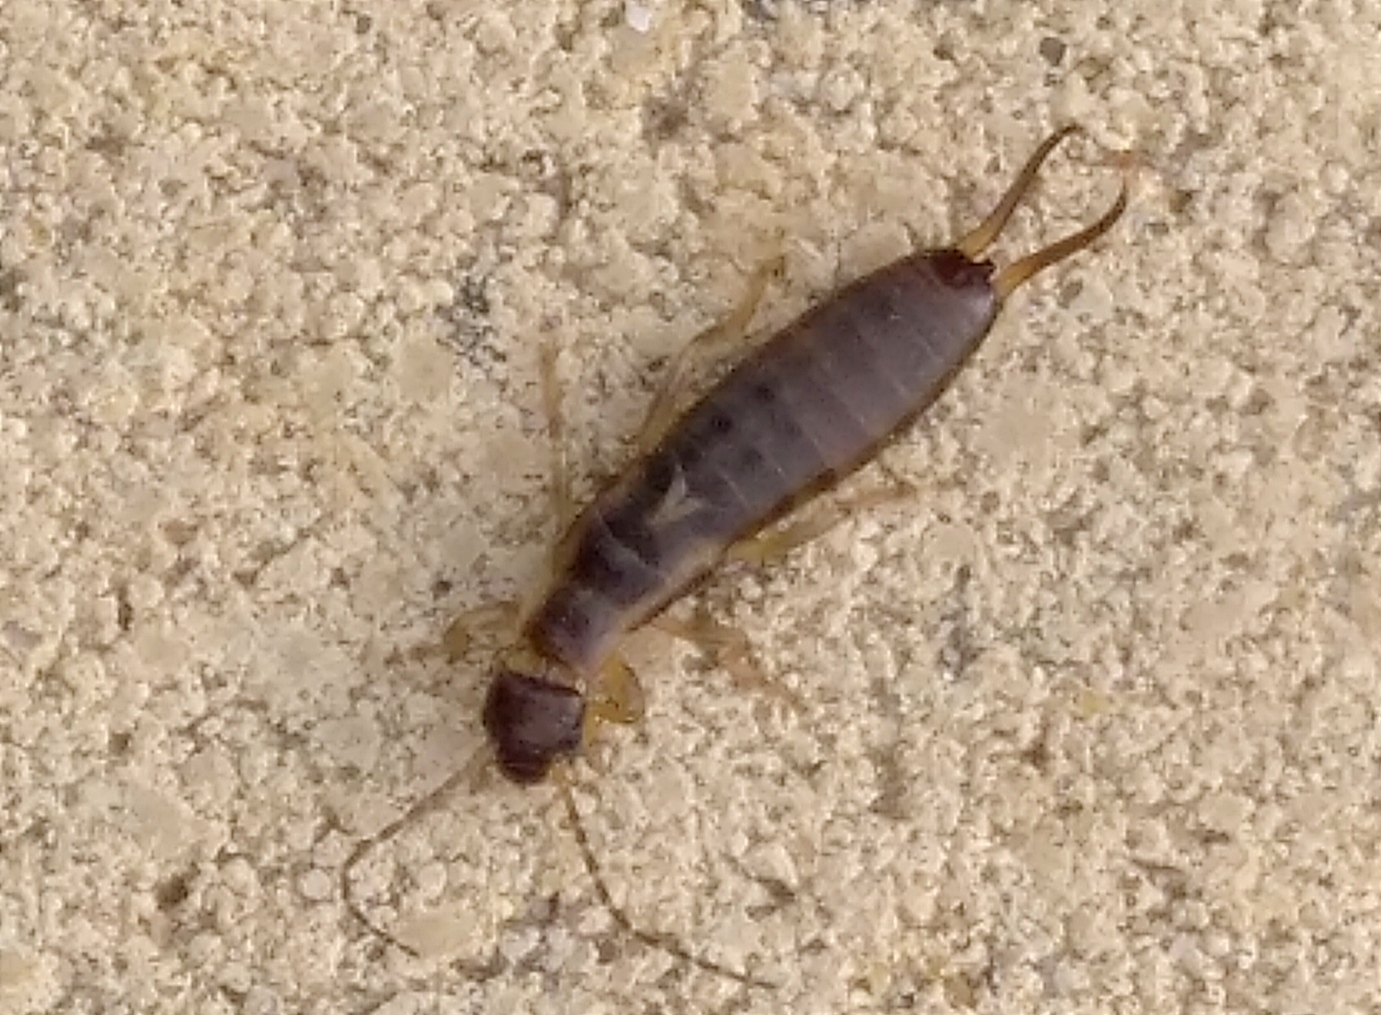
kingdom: Animalia
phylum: Arthropoda
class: Insecta
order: Dermaptera
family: Forficulidae
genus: Forficula
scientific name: Forficula
